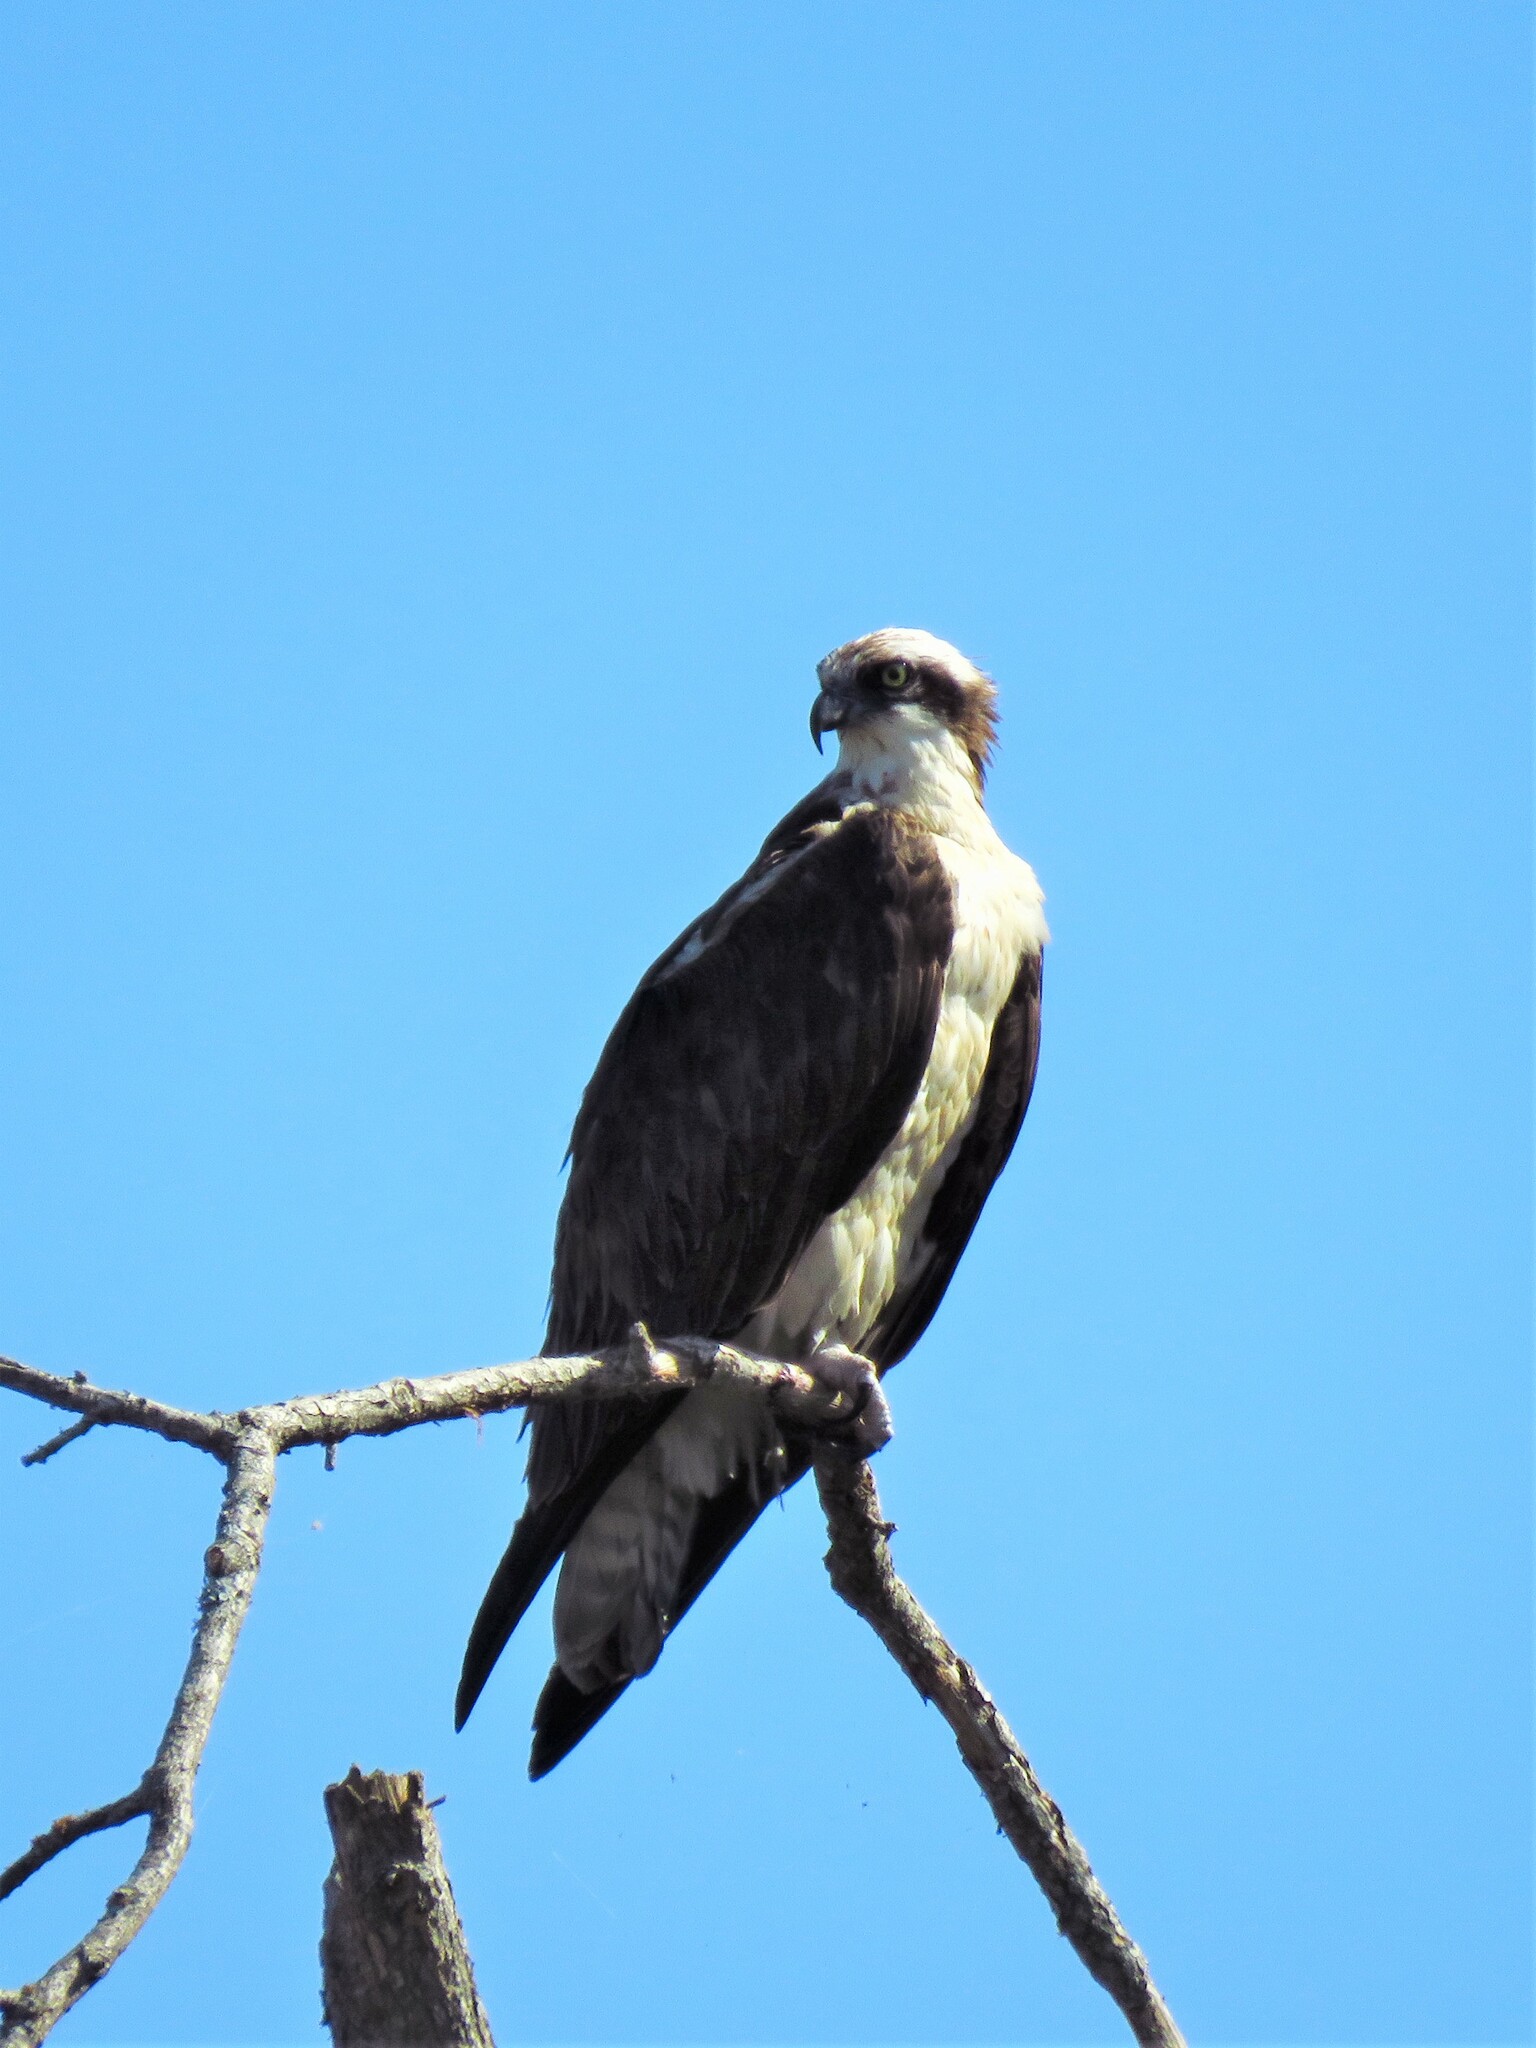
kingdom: Animalia
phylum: Chordata
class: Aves
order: Accipitriformes
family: Pandionidae
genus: Pandion
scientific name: Pandion haliaetus
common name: Osprey
